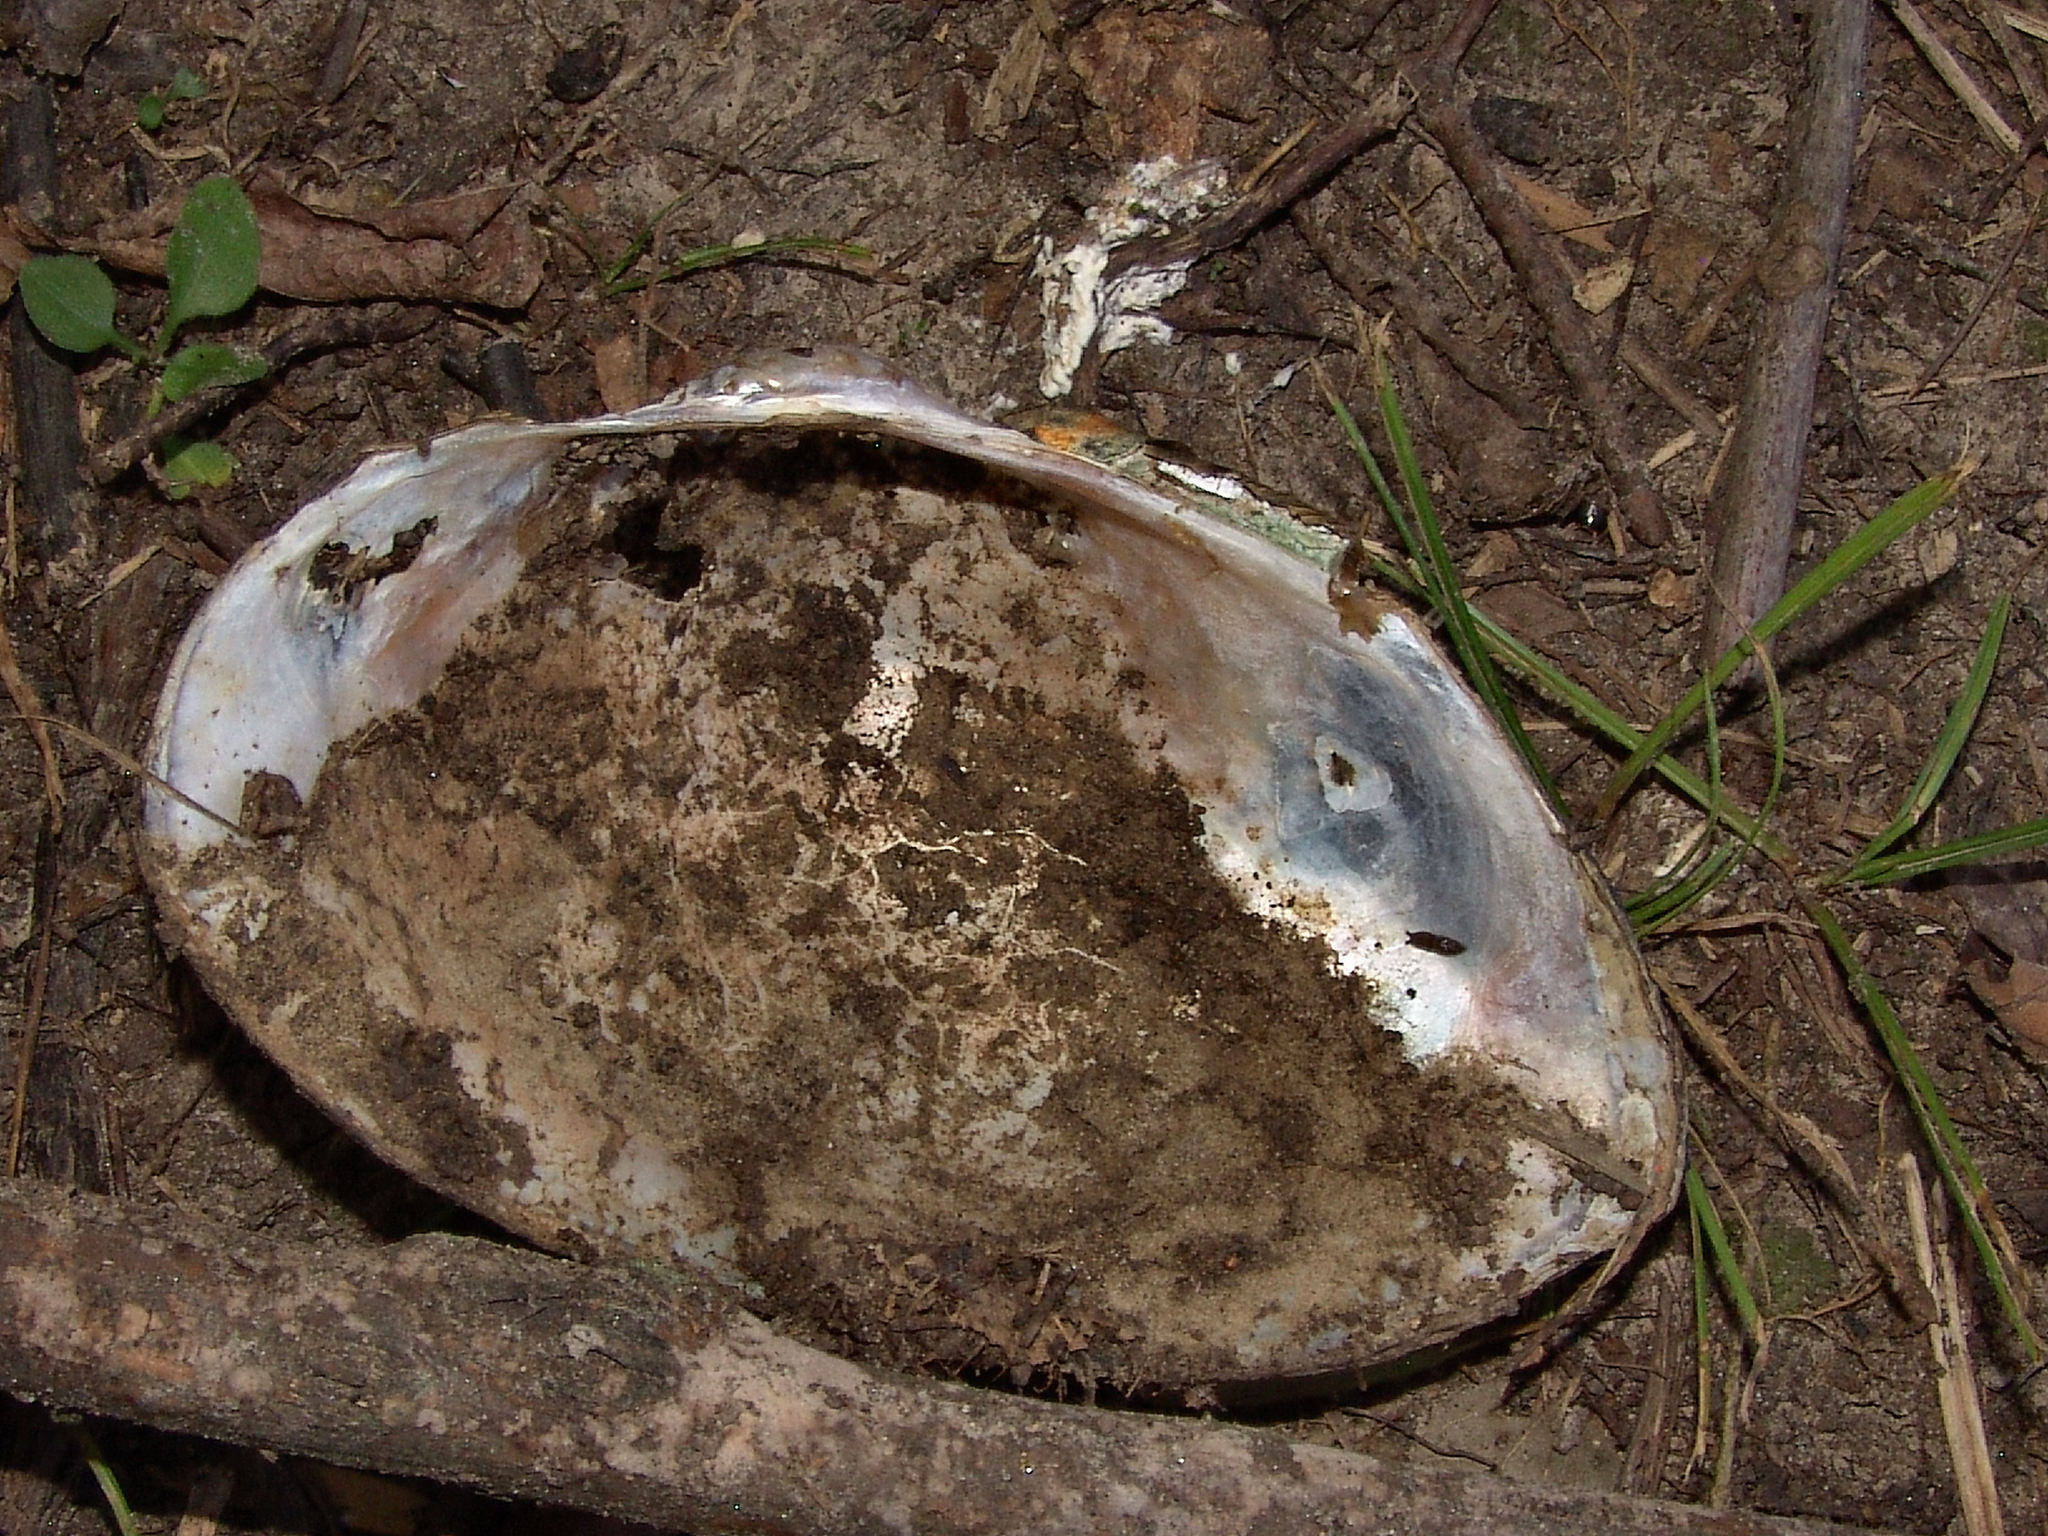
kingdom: Animalia
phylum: Mollusca
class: Bivalvia
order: Unionida
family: Unionidae
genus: Pyganodon
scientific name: Pyganodon grandis
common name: Giant floater
